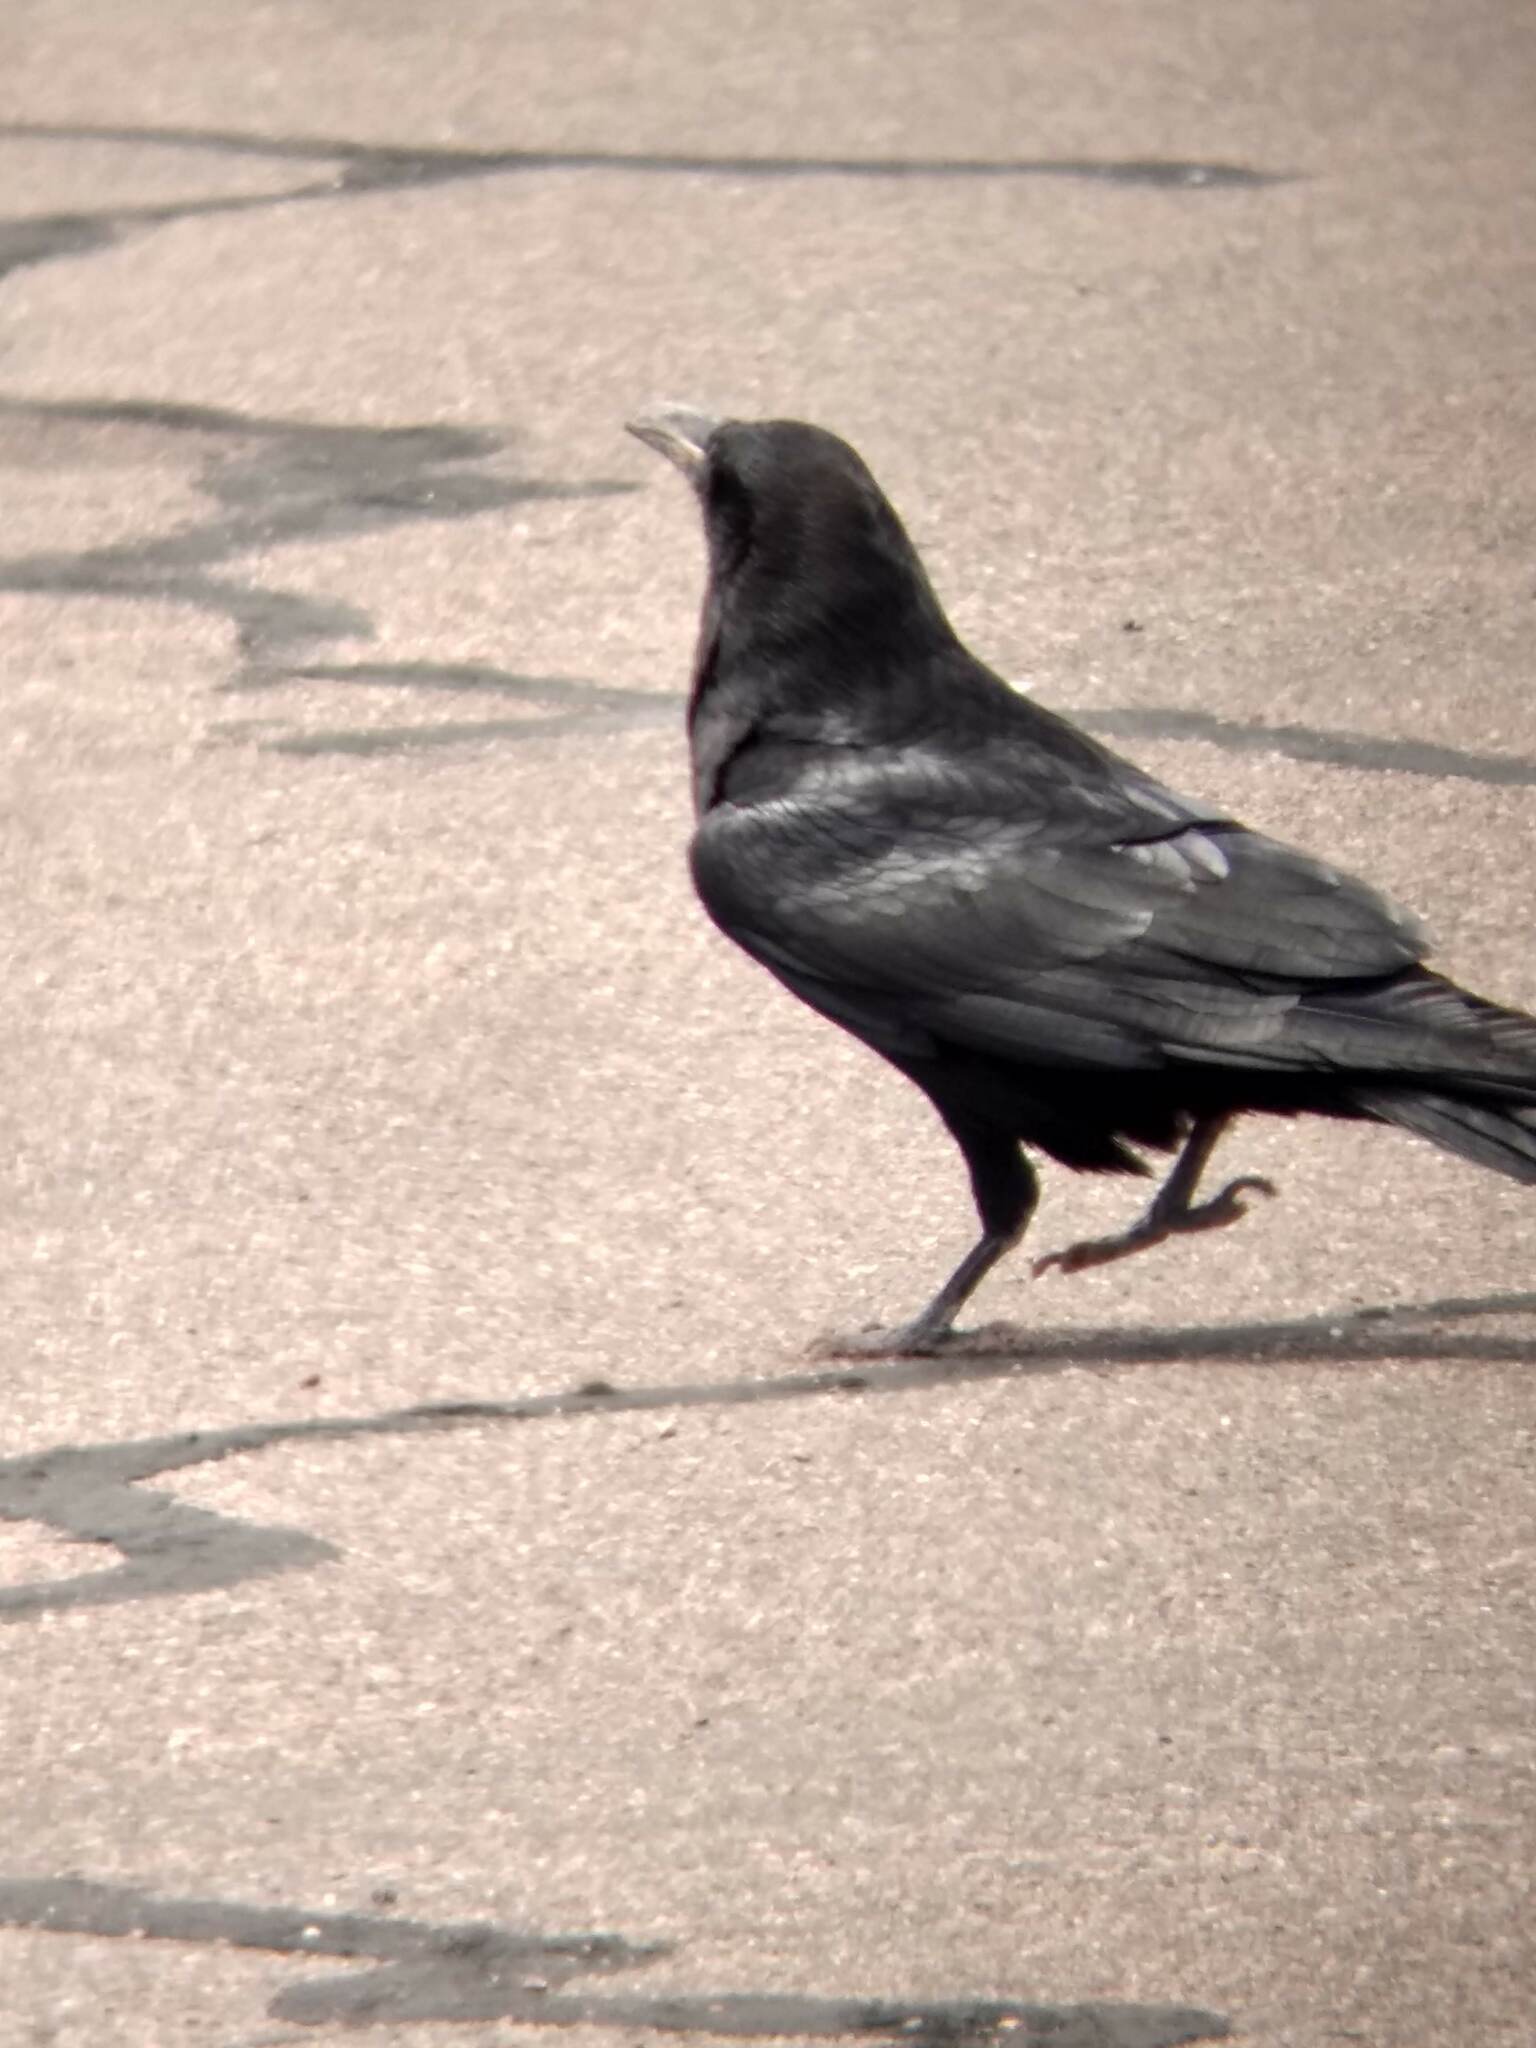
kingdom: Animalia
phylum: Chordata
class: Aves
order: Passeriformes
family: Corvidae
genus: Corvus
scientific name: Corvus corax
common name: Common raven
